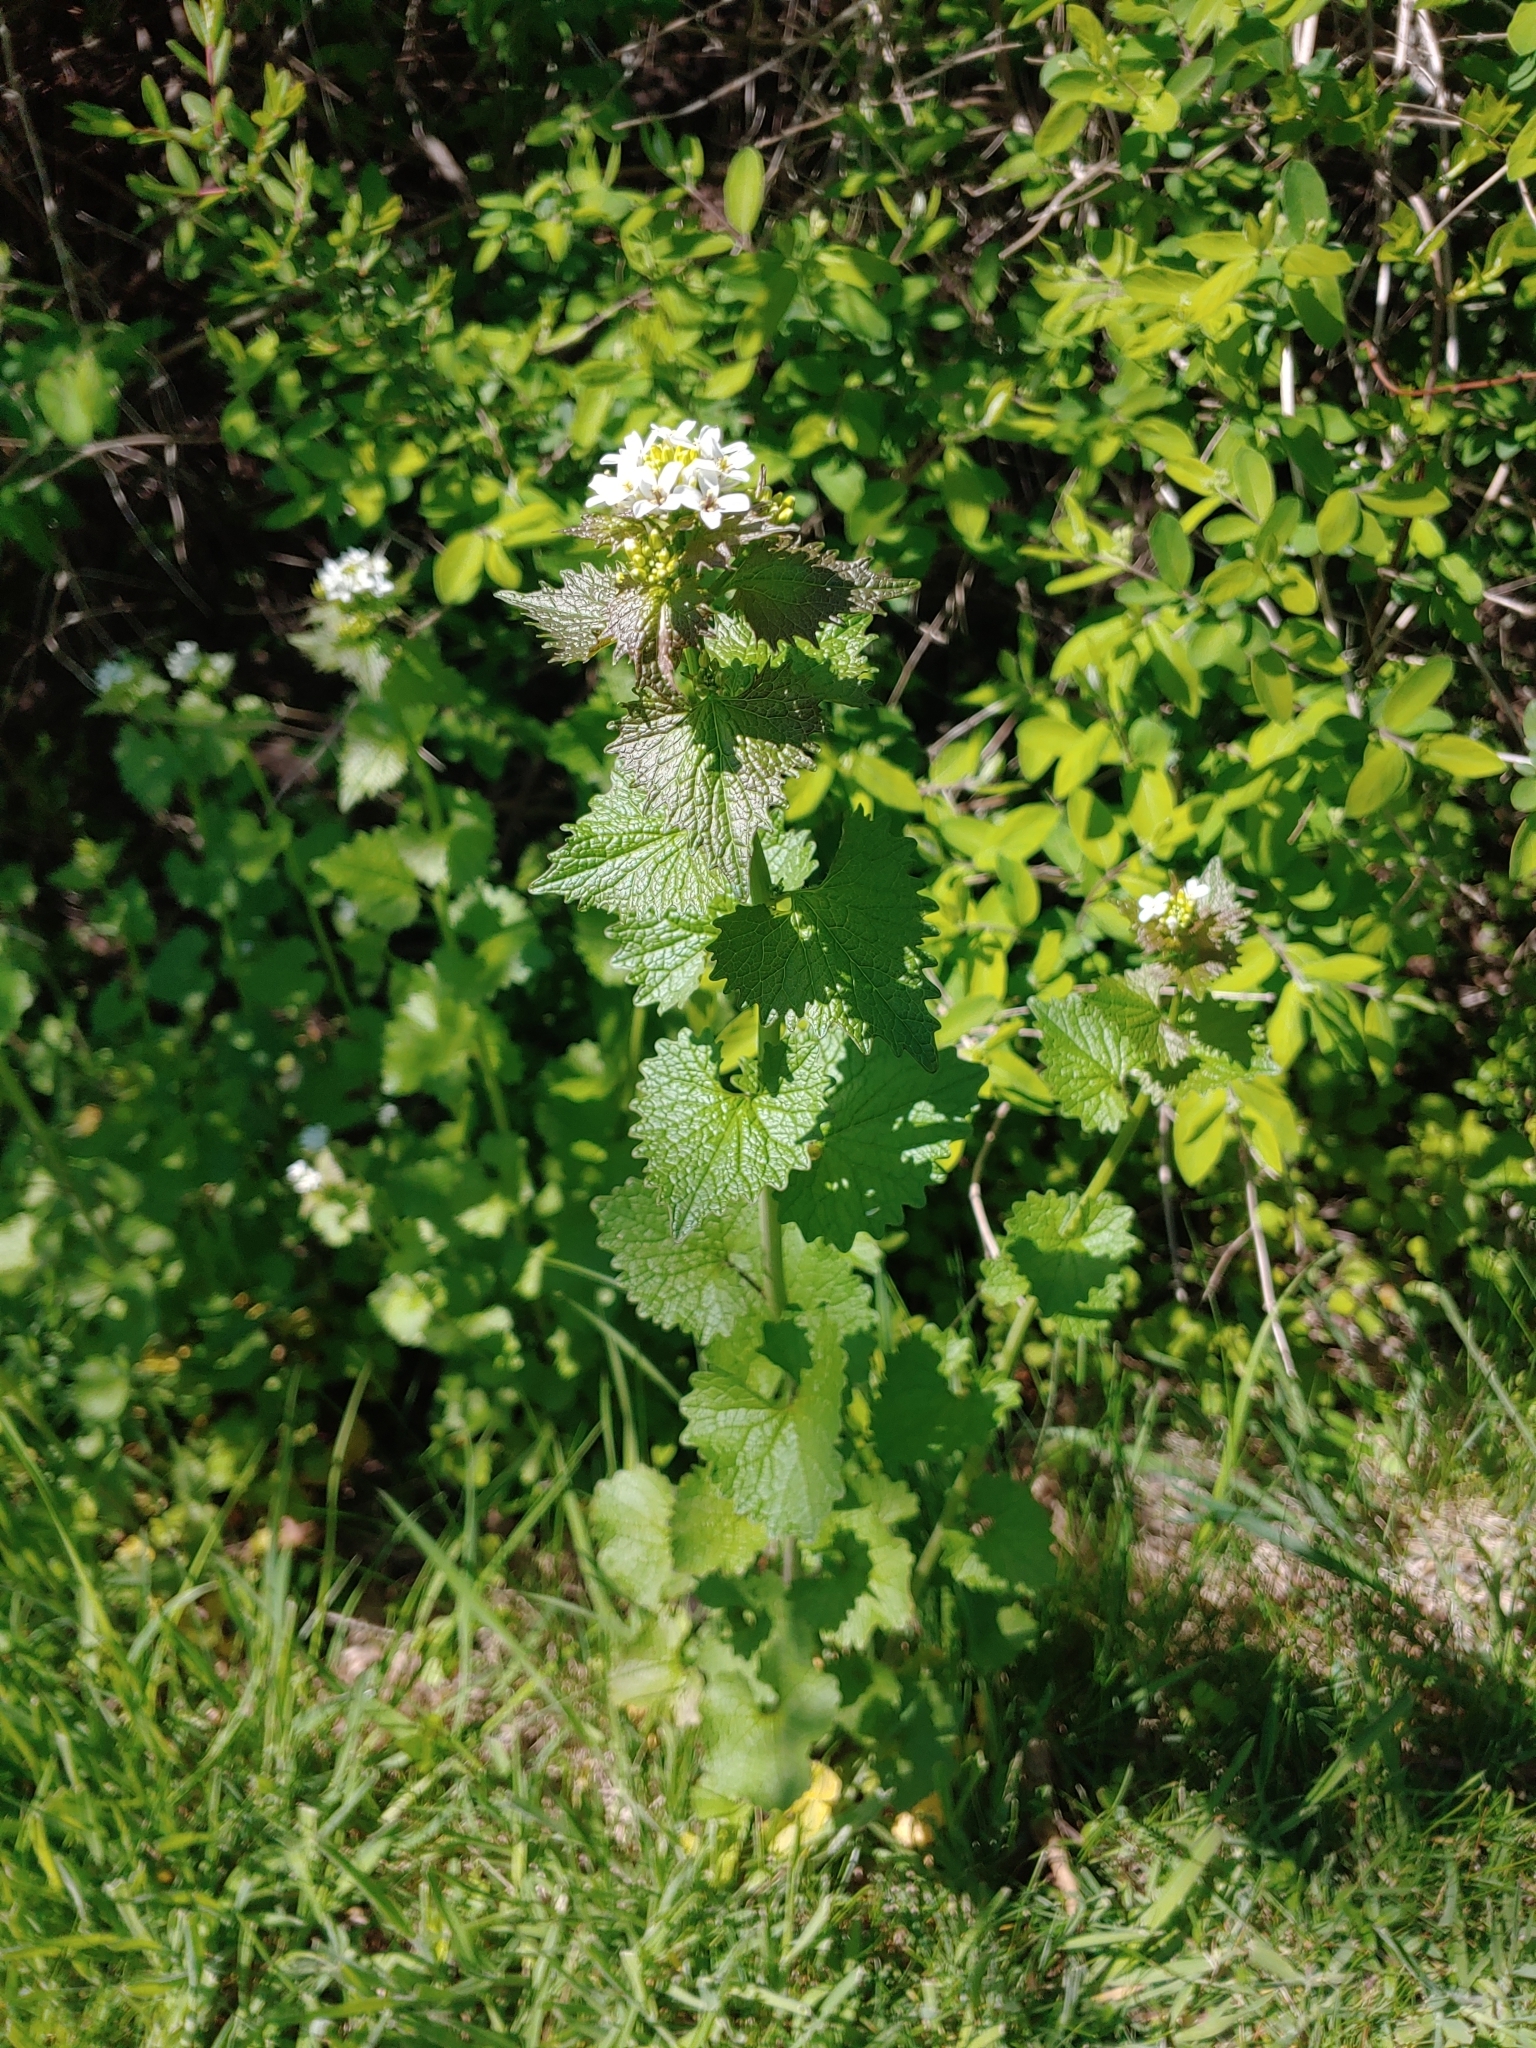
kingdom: Plantae
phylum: Tracheophyta
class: Magnoliopsida
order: Brassicales
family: Brassicaceae
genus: Alliaria
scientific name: Alliaria petiolata
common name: Garlic mustard
